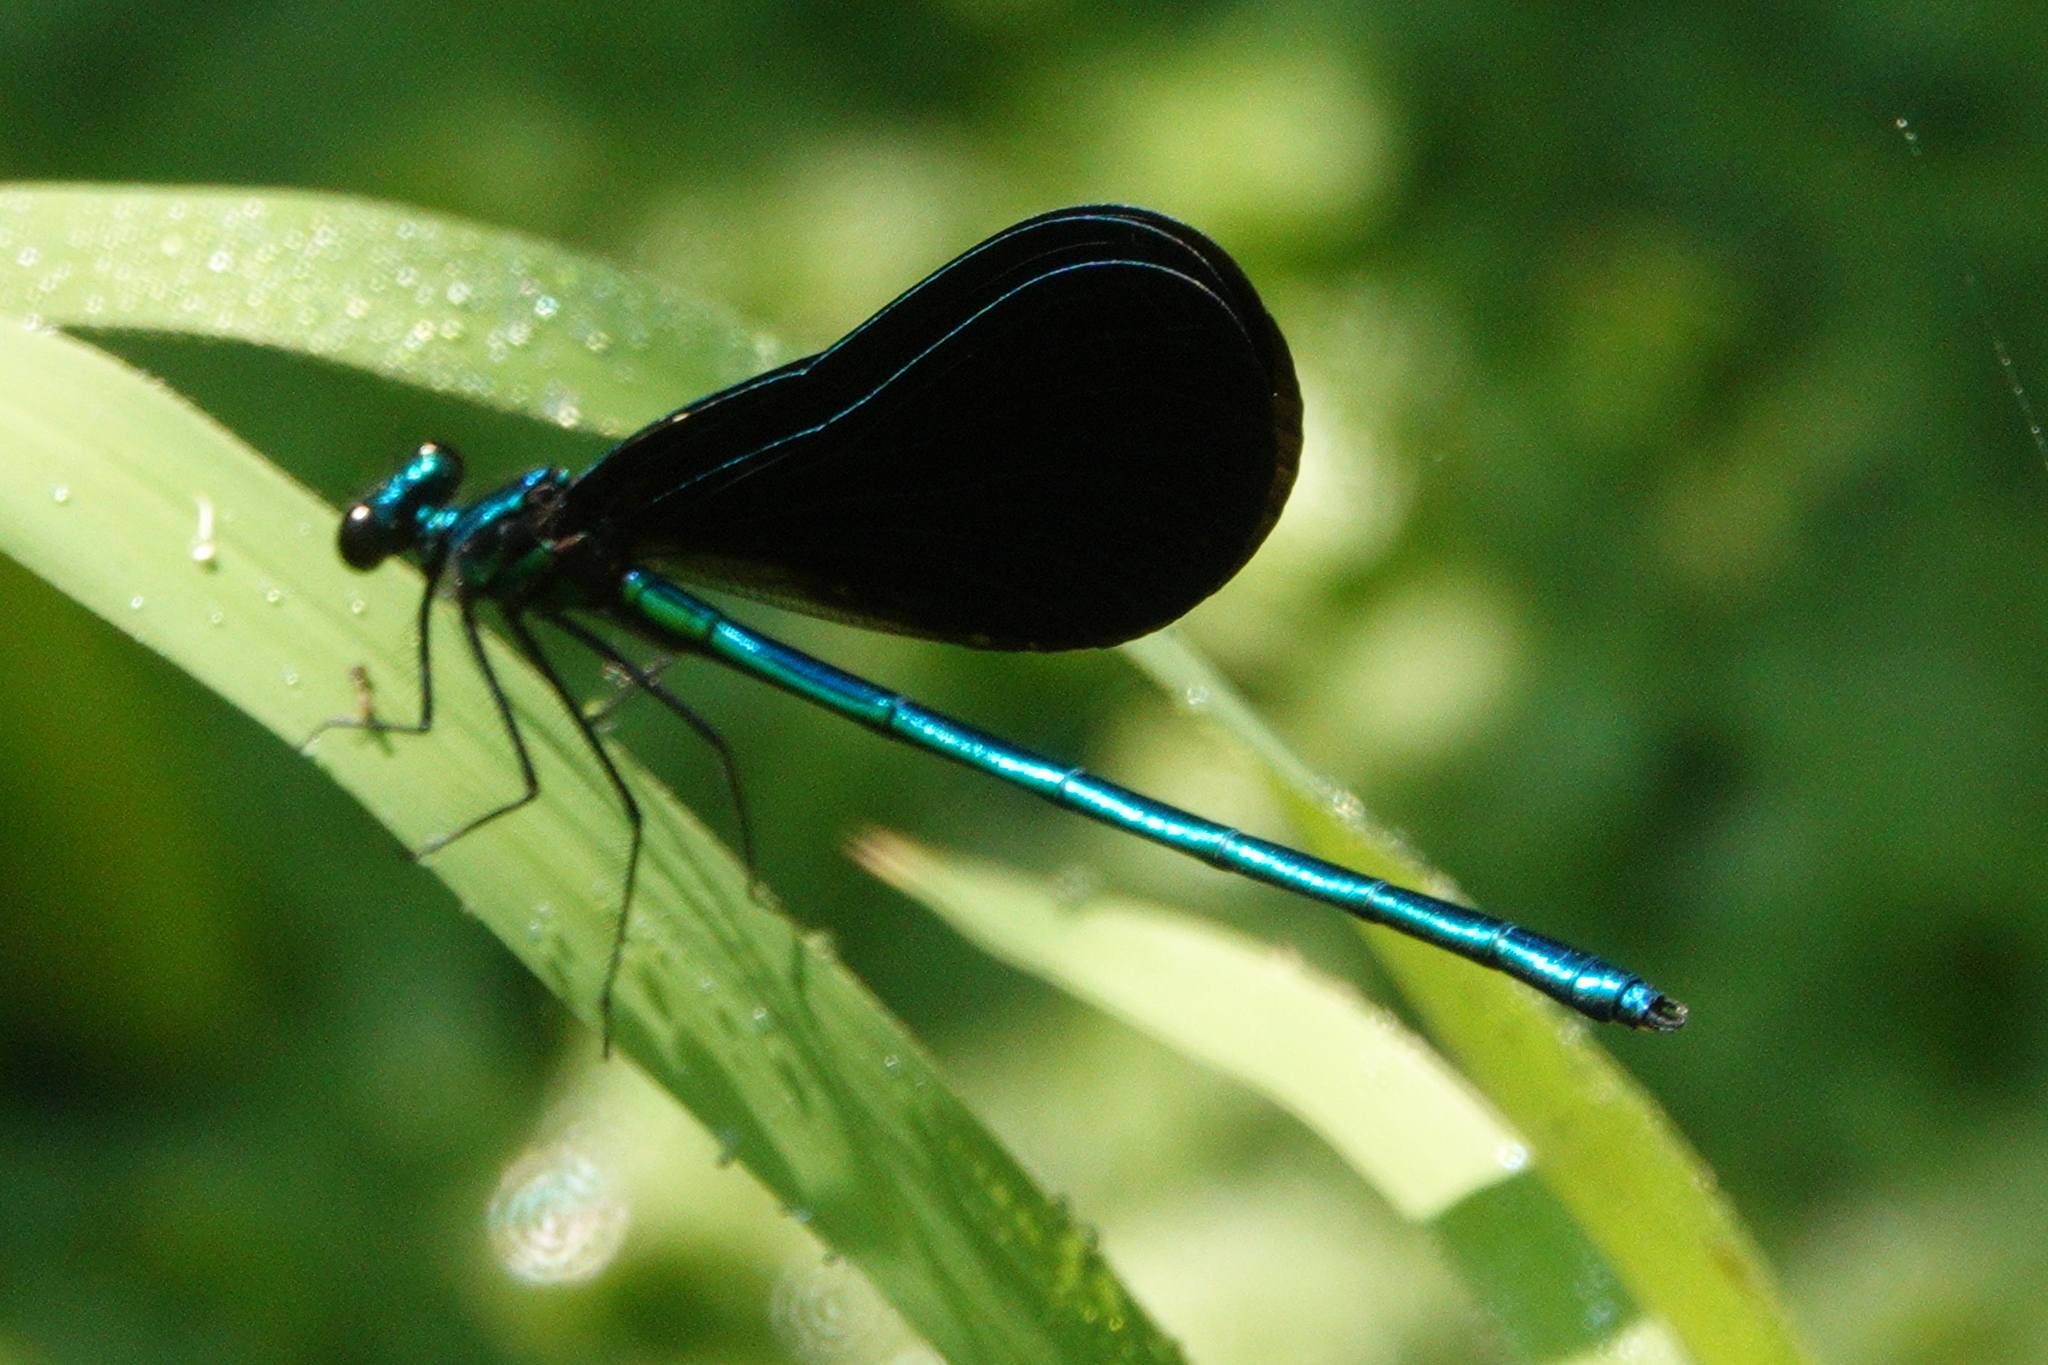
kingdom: Animalia
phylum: Arthropoda
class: Insecta
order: Odonata
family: Calopterygidae
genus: Calopteryx
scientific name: Calopteryx maculata
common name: Ebony jewelwing
